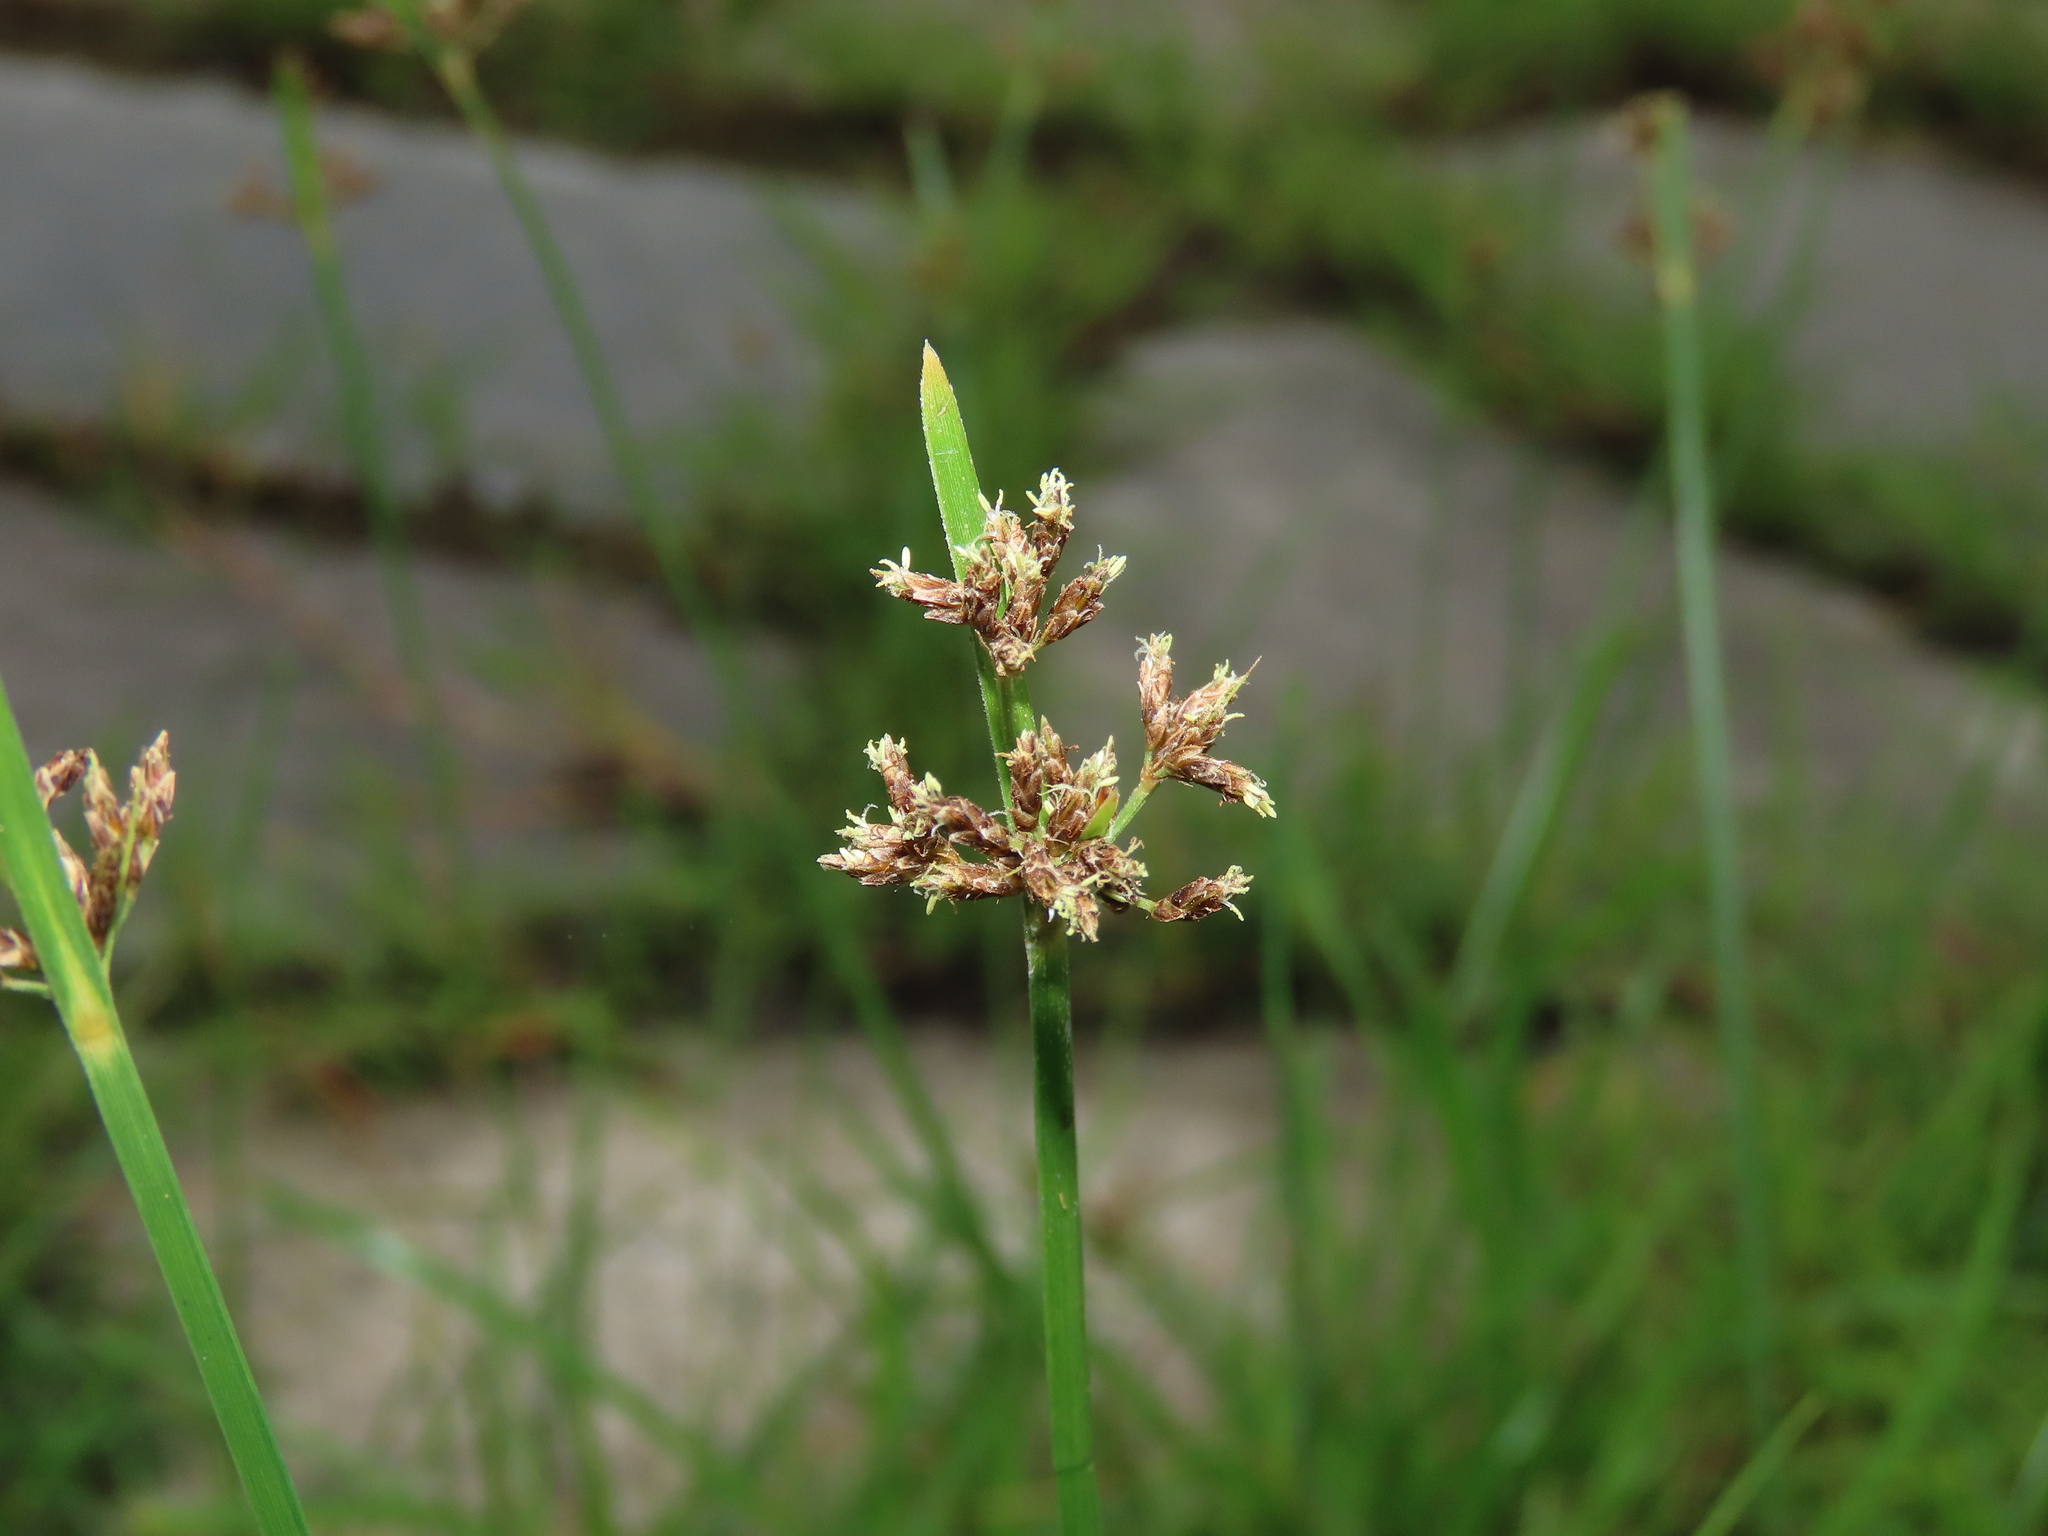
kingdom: Plantae
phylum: Tracheophyta
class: Liliopsida
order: Poales
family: Cyperaceae
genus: Fimbristylis
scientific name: Fimbristylis microcarya
